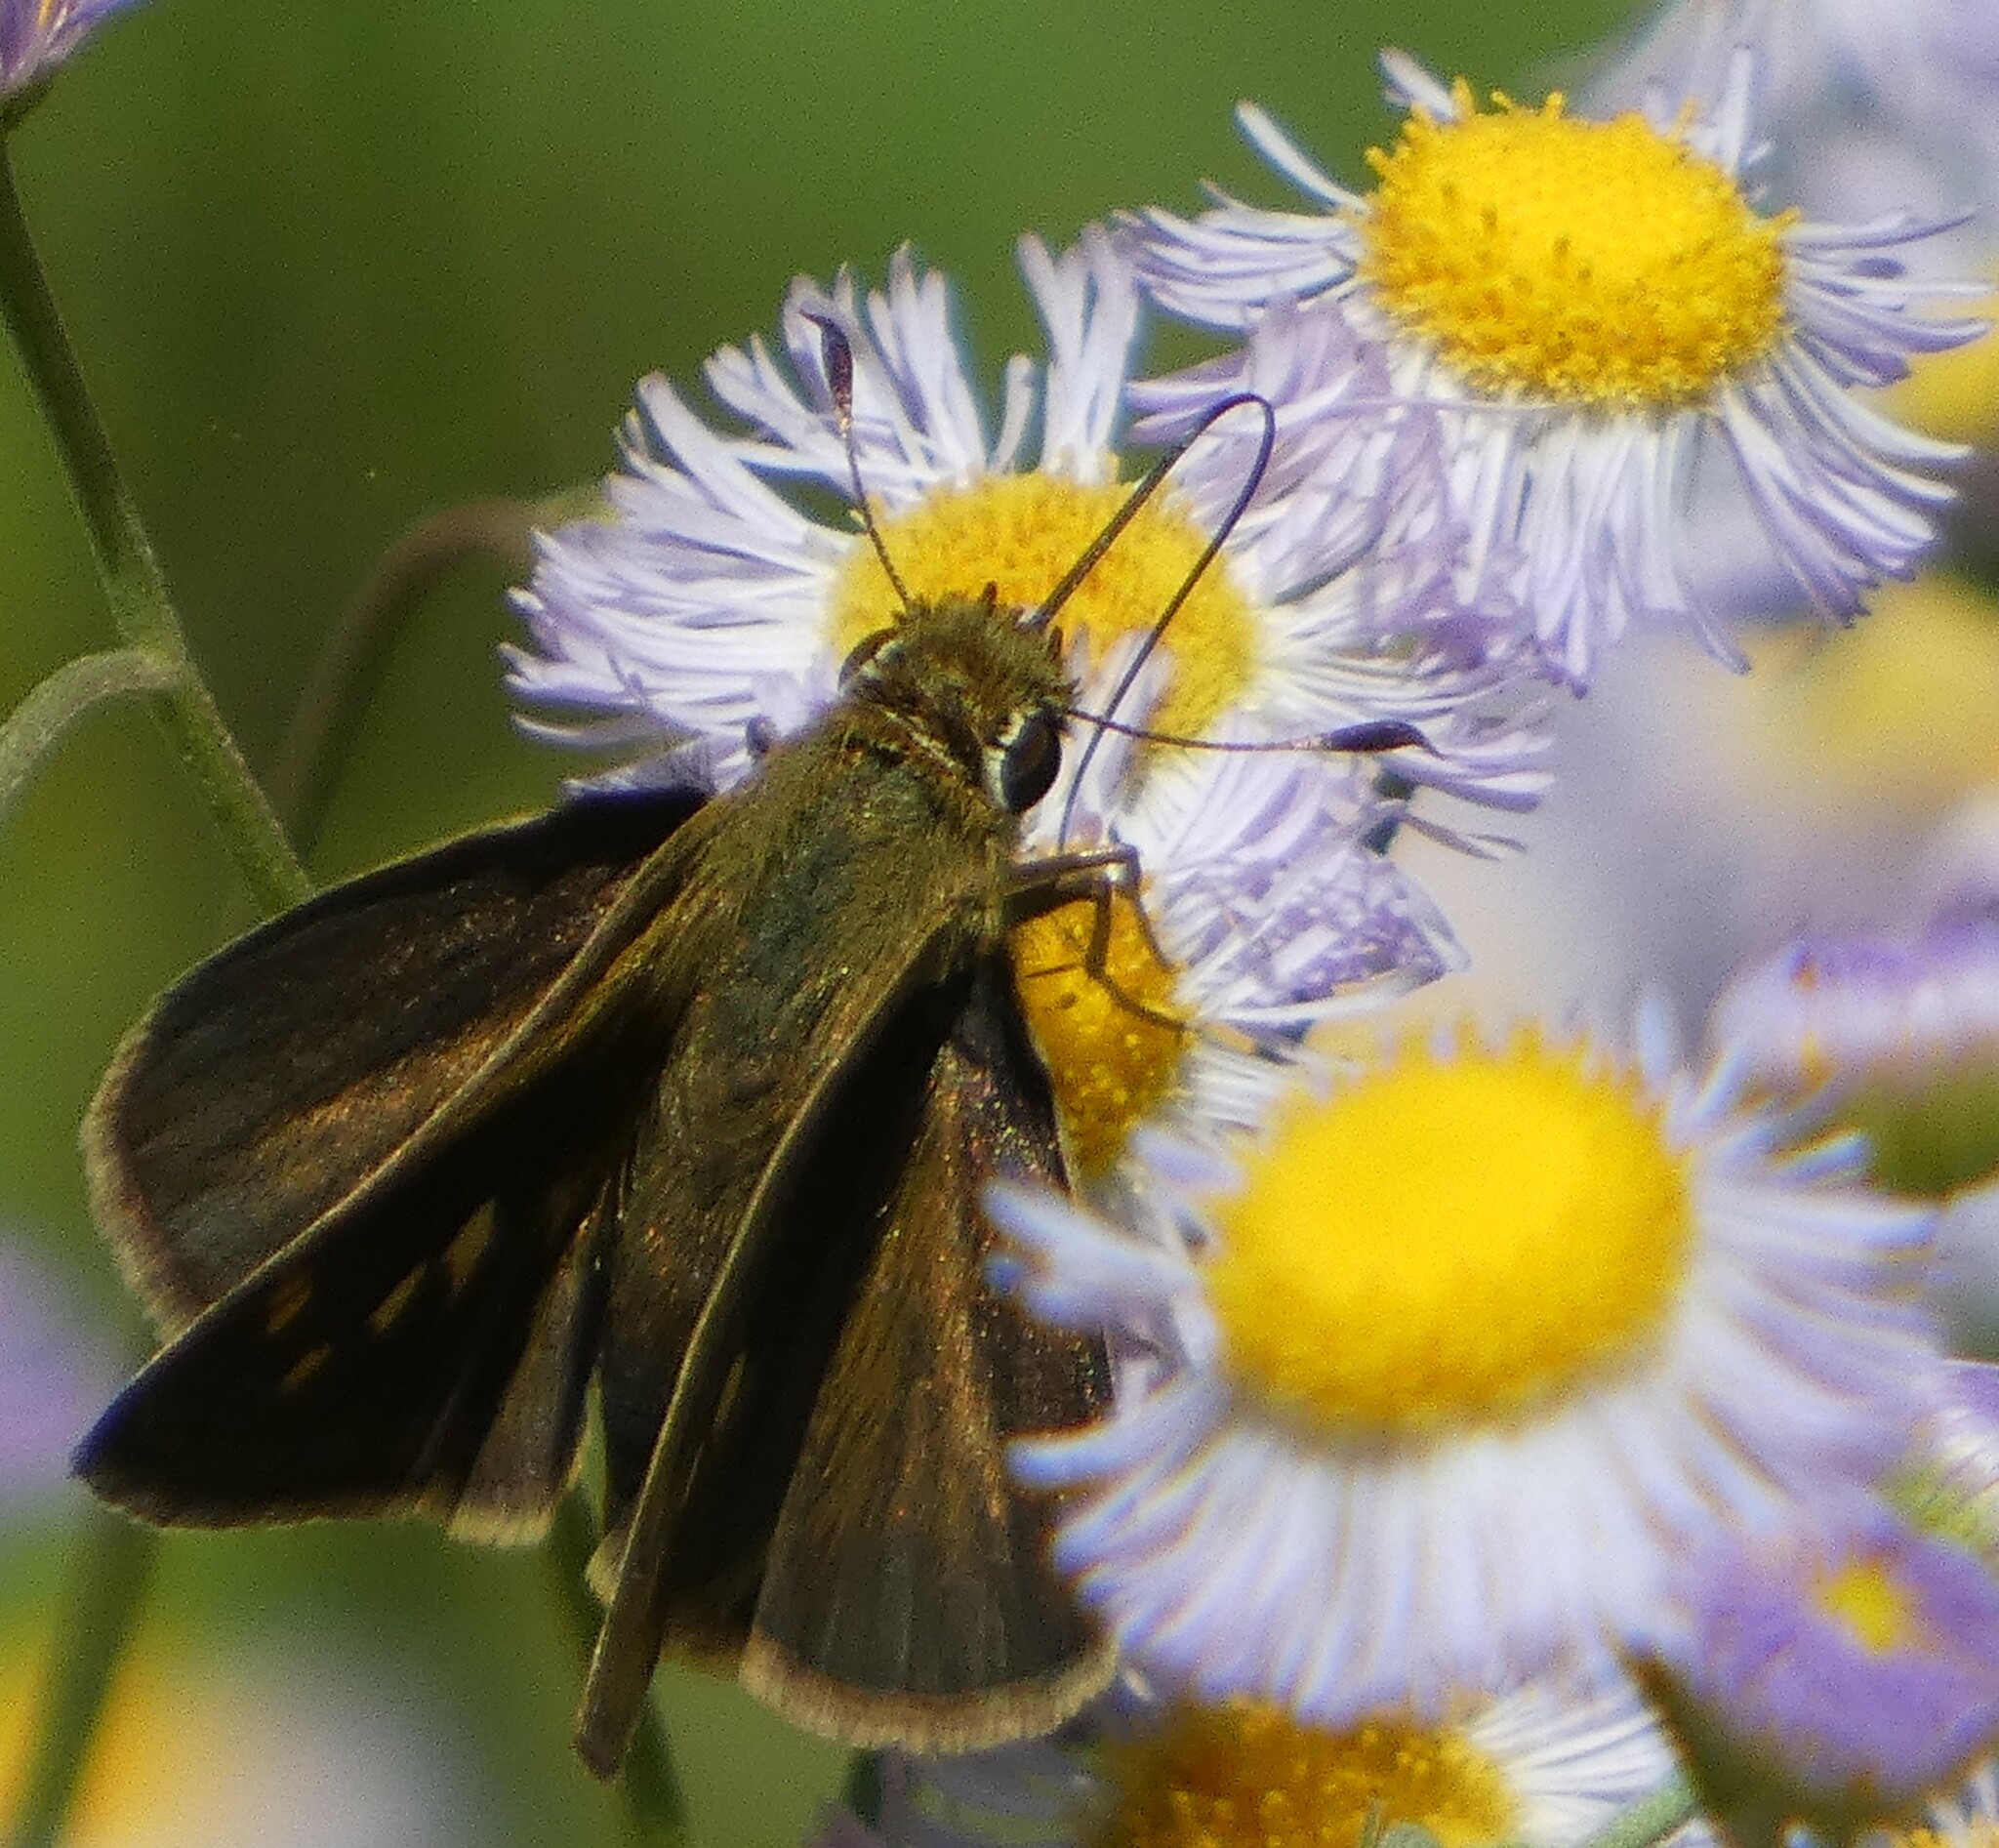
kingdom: Animalia
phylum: Arthropoda
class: Insecta
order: Lepidoptera
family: Hesperiidae
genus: Polites
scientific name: Polites vibex
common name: Whirlabout
